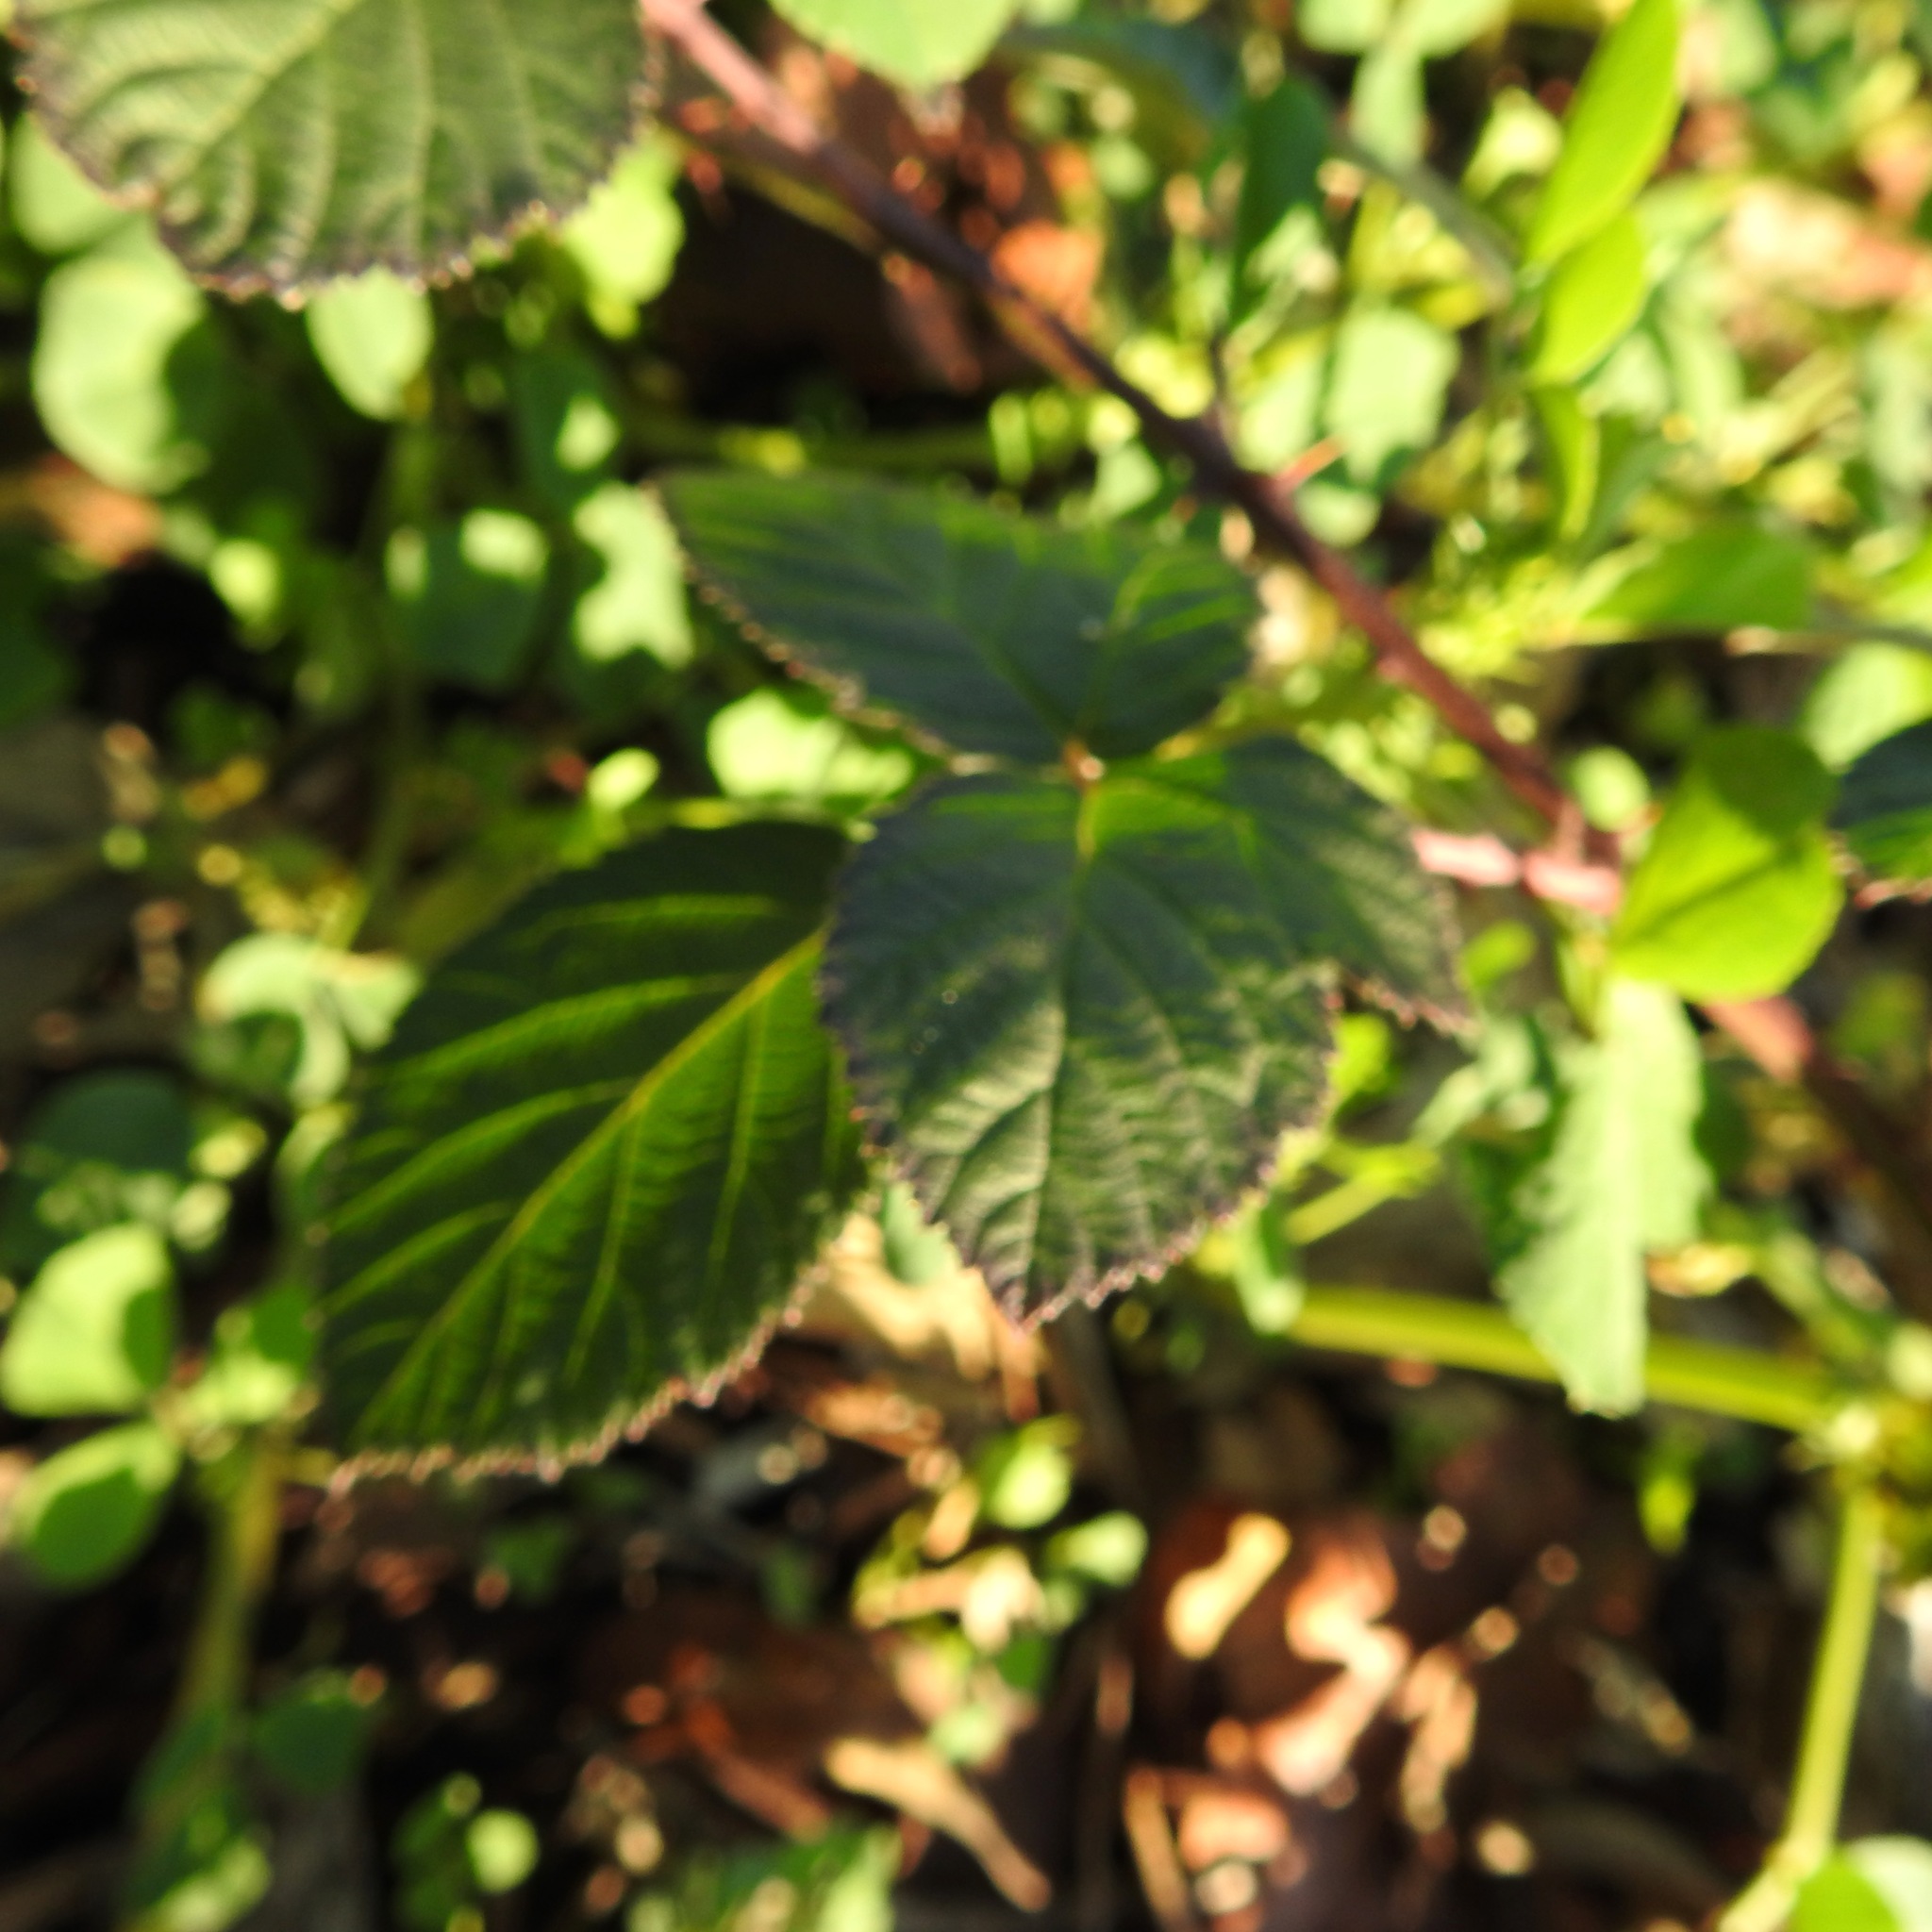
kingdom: Plantae
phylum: Tracheophyta
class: Magnoliopsida
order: Rosales
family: Rosaceae
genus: Rubus
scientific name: Rubus armeniacus
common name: Himalayan blackberry
